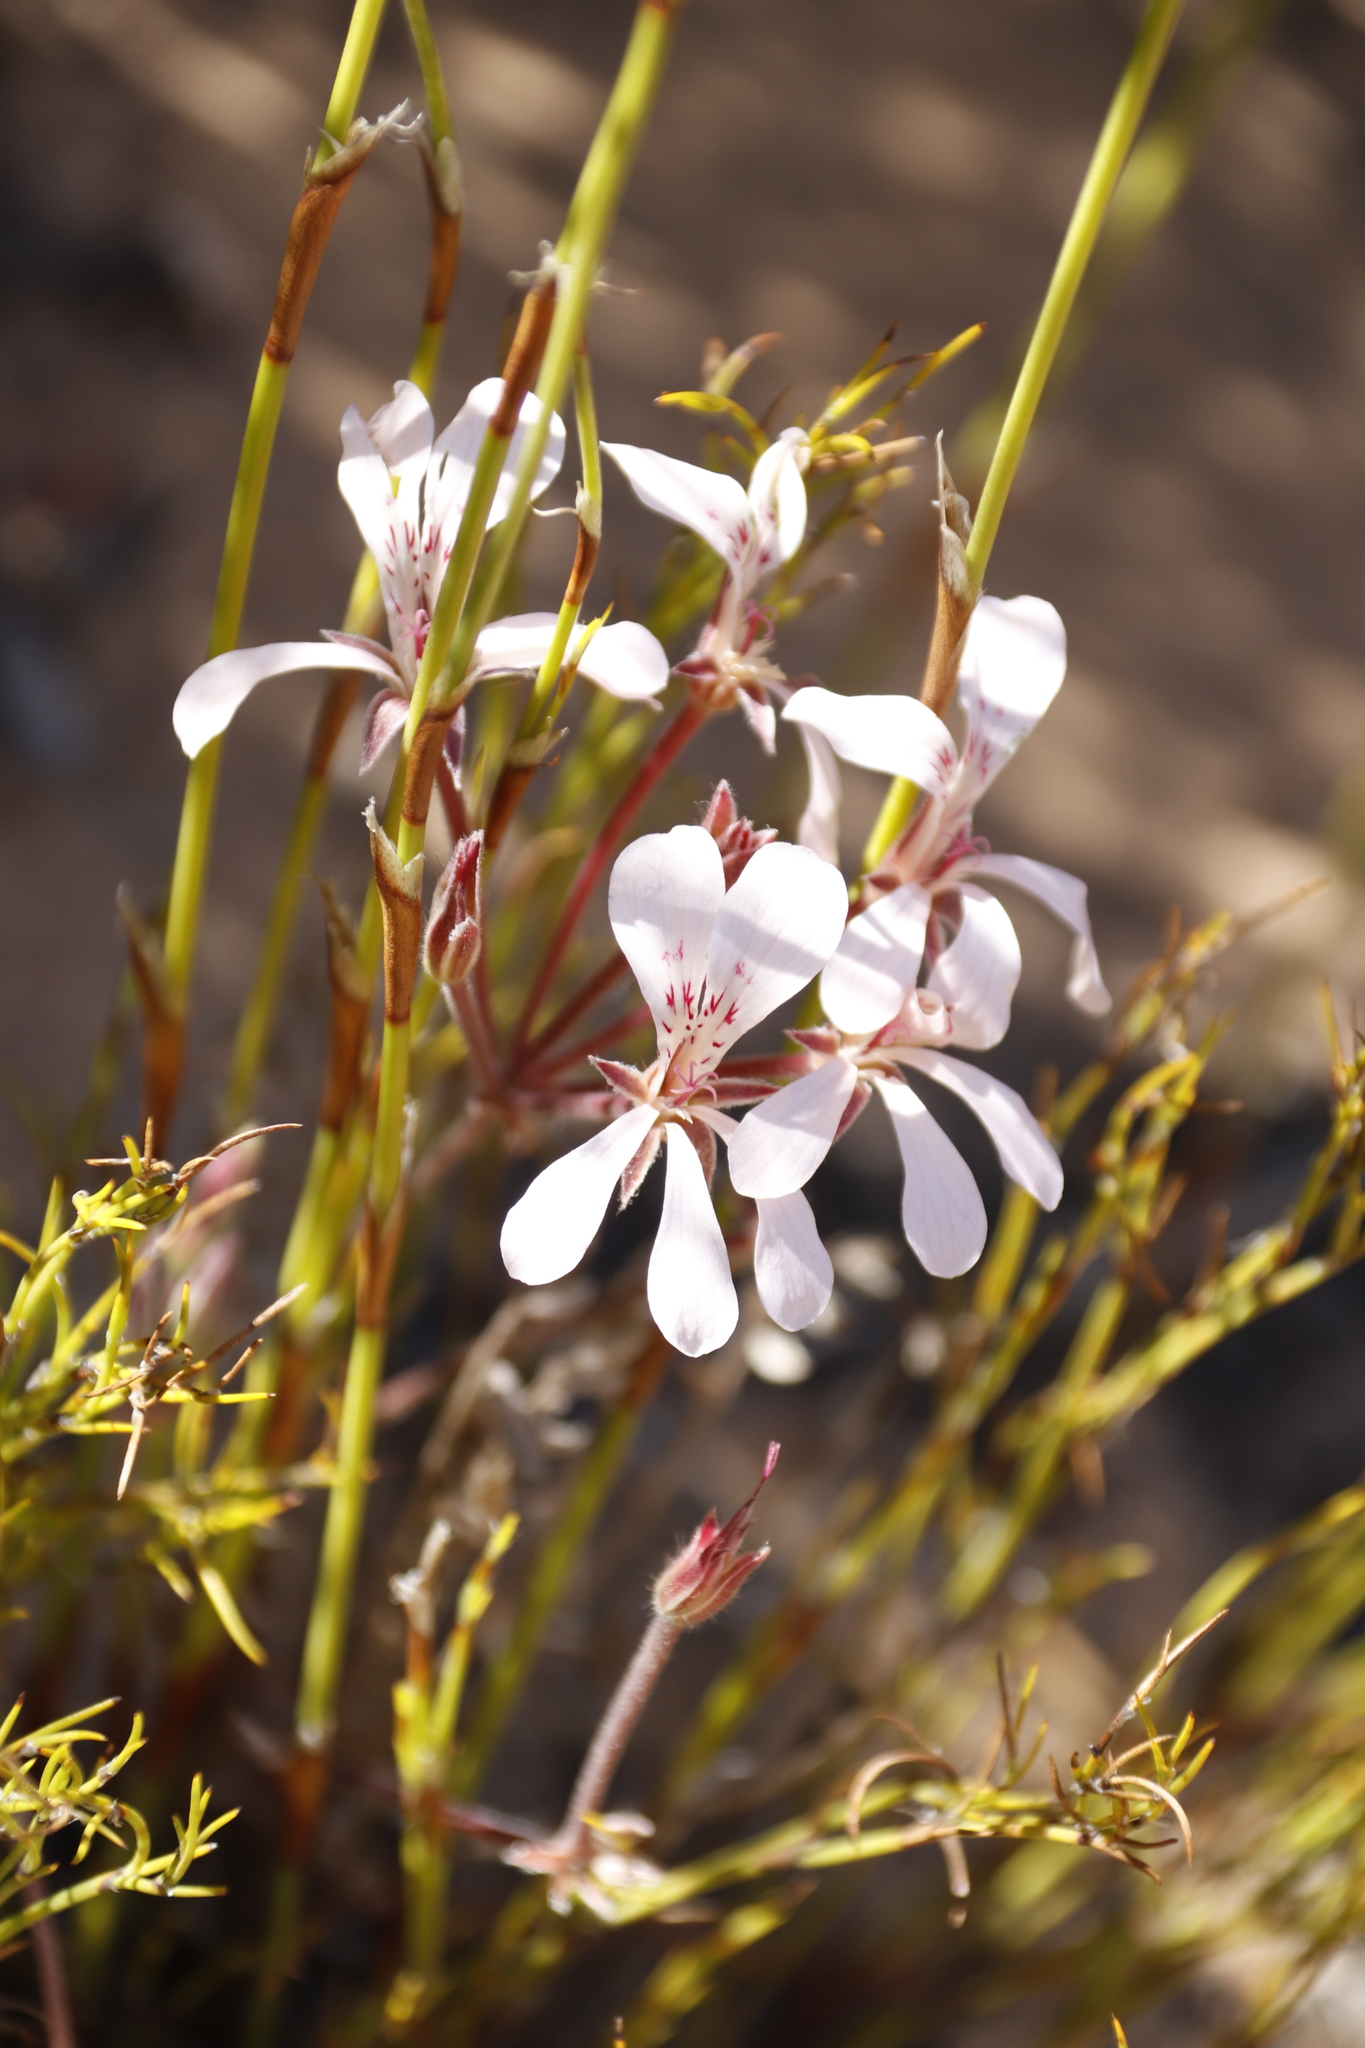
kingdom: Plantae
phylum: Tracheophyta
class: Magnoliopsida
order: Geraniales
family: Geraniaceae
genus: Pelargonium
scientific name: Pelargonium pinnatum
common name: Pinnated pelargonium
